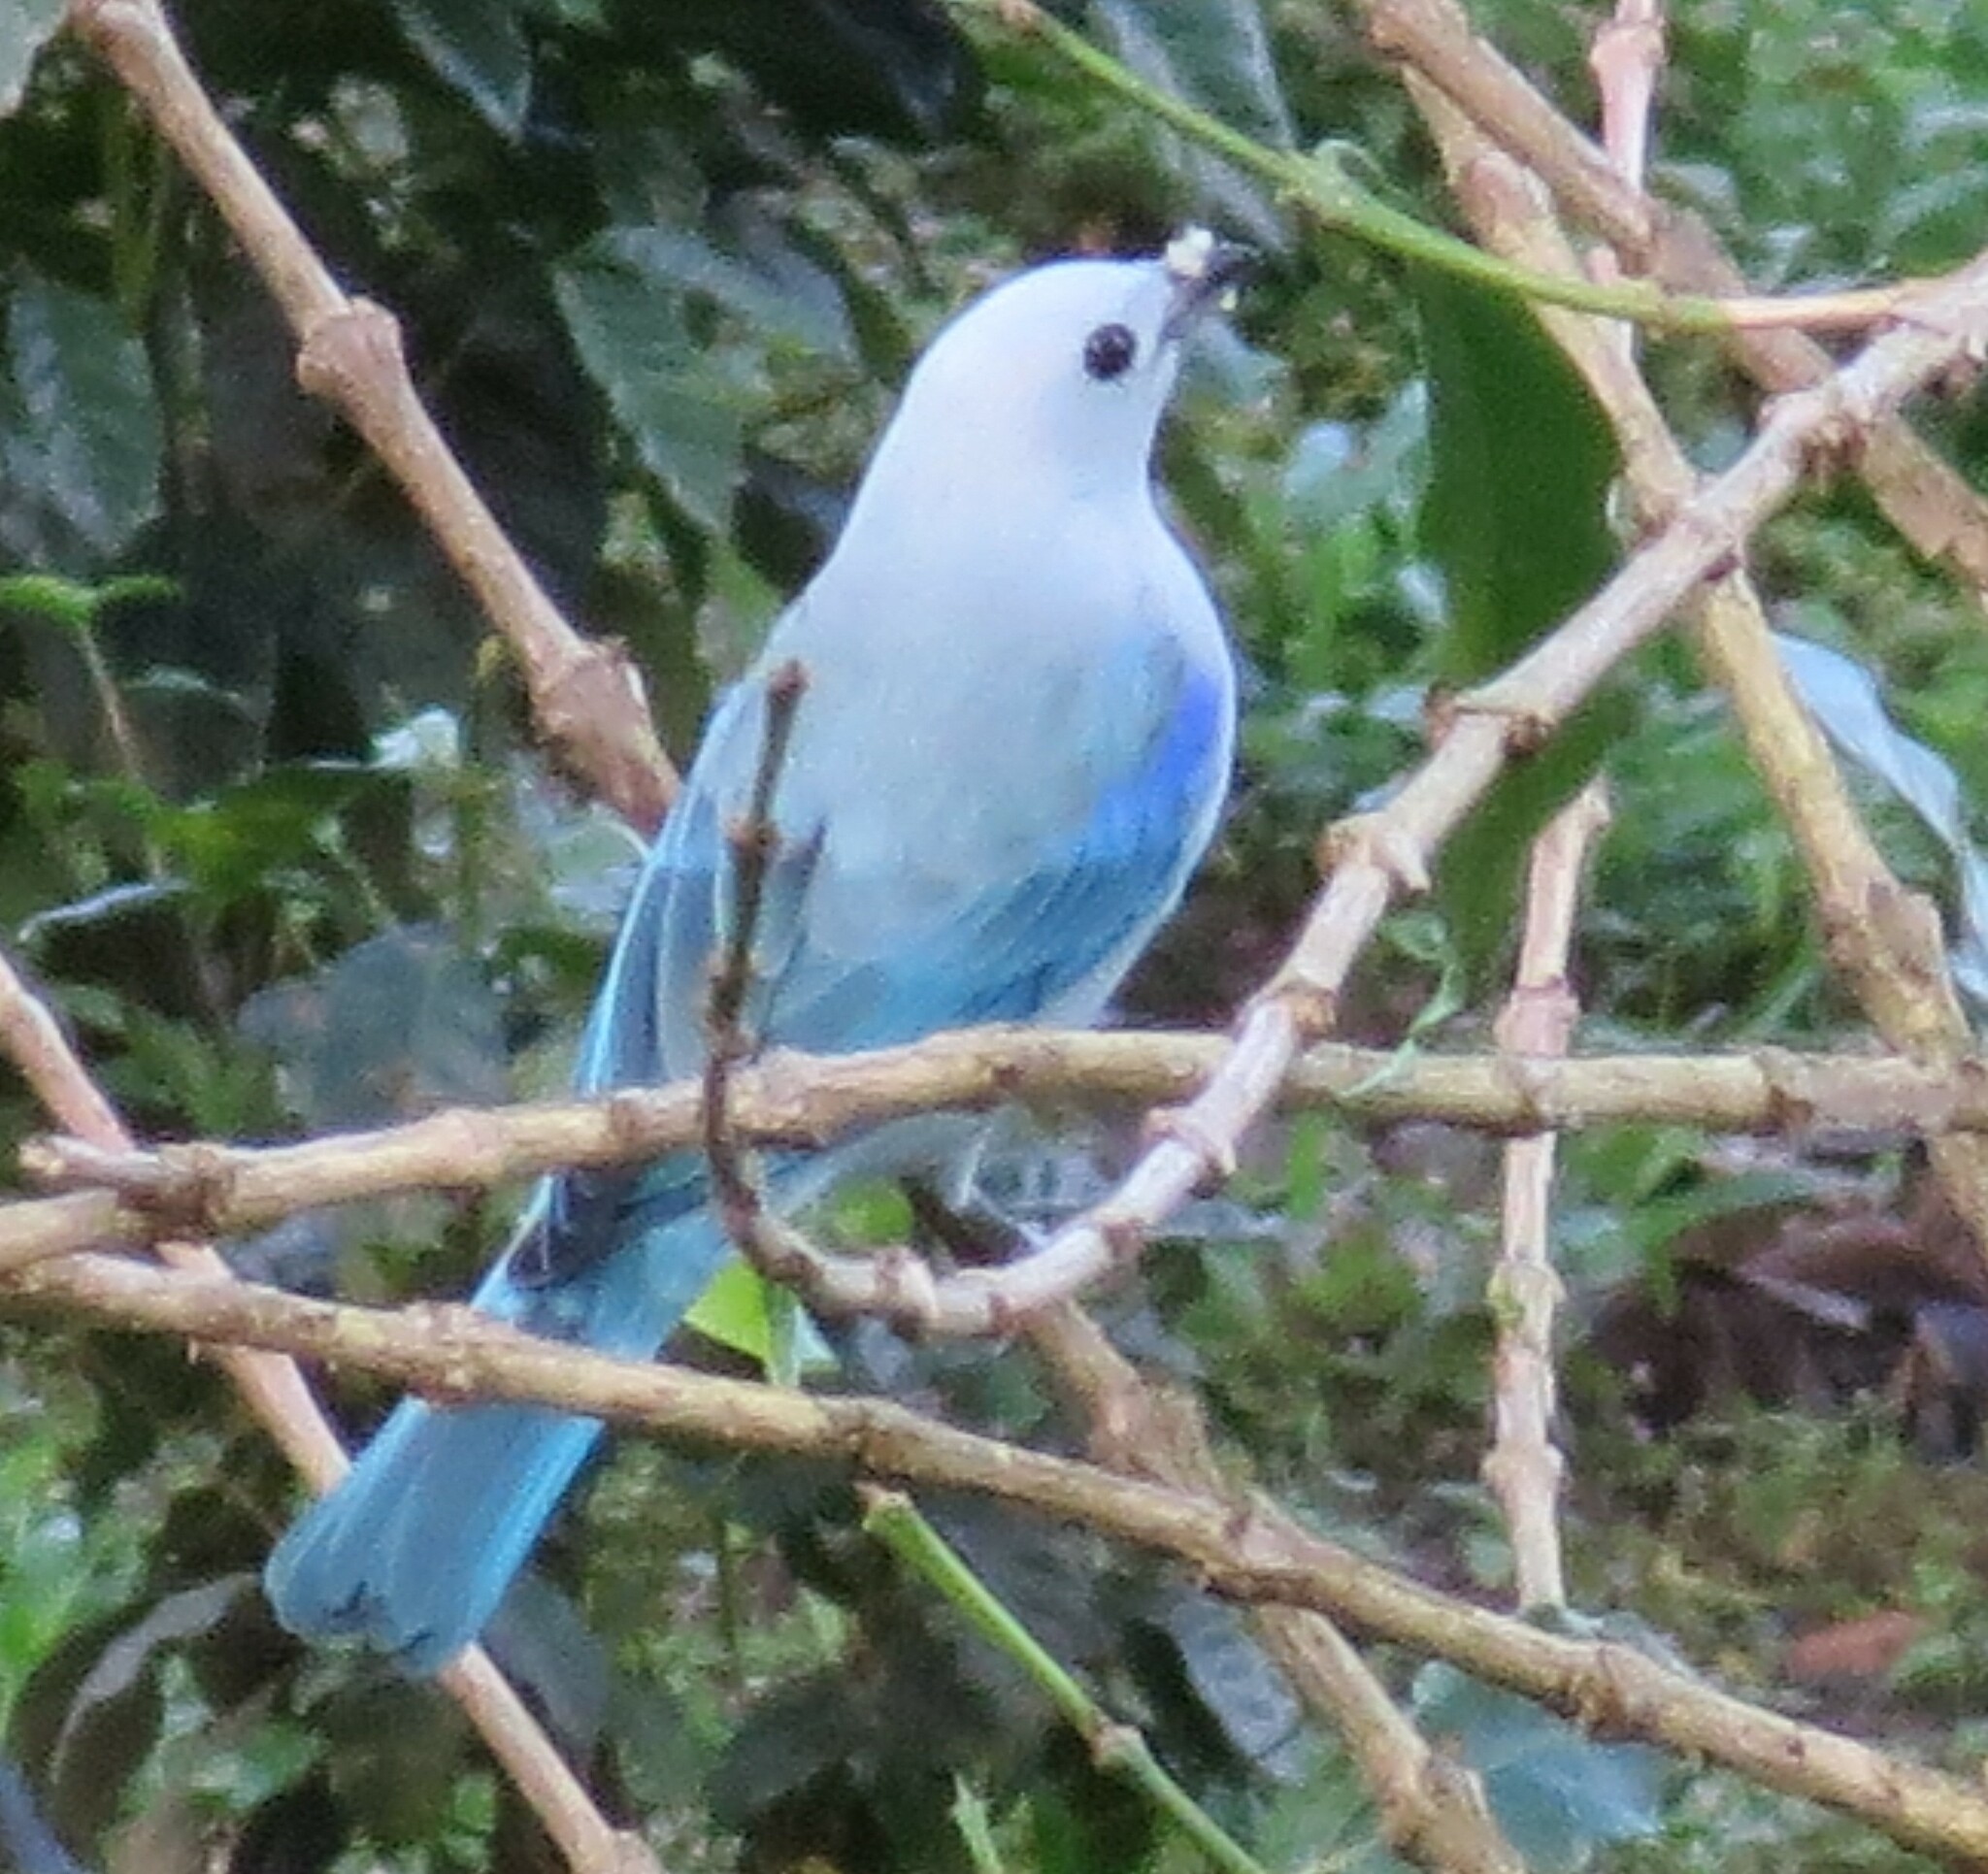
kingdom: Animalia
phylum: Chordata
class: Aves
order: Passeriformes
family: Thraupidae
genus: Thraupis
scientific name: Thraupis episcopus
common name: Blue-grey tanager
